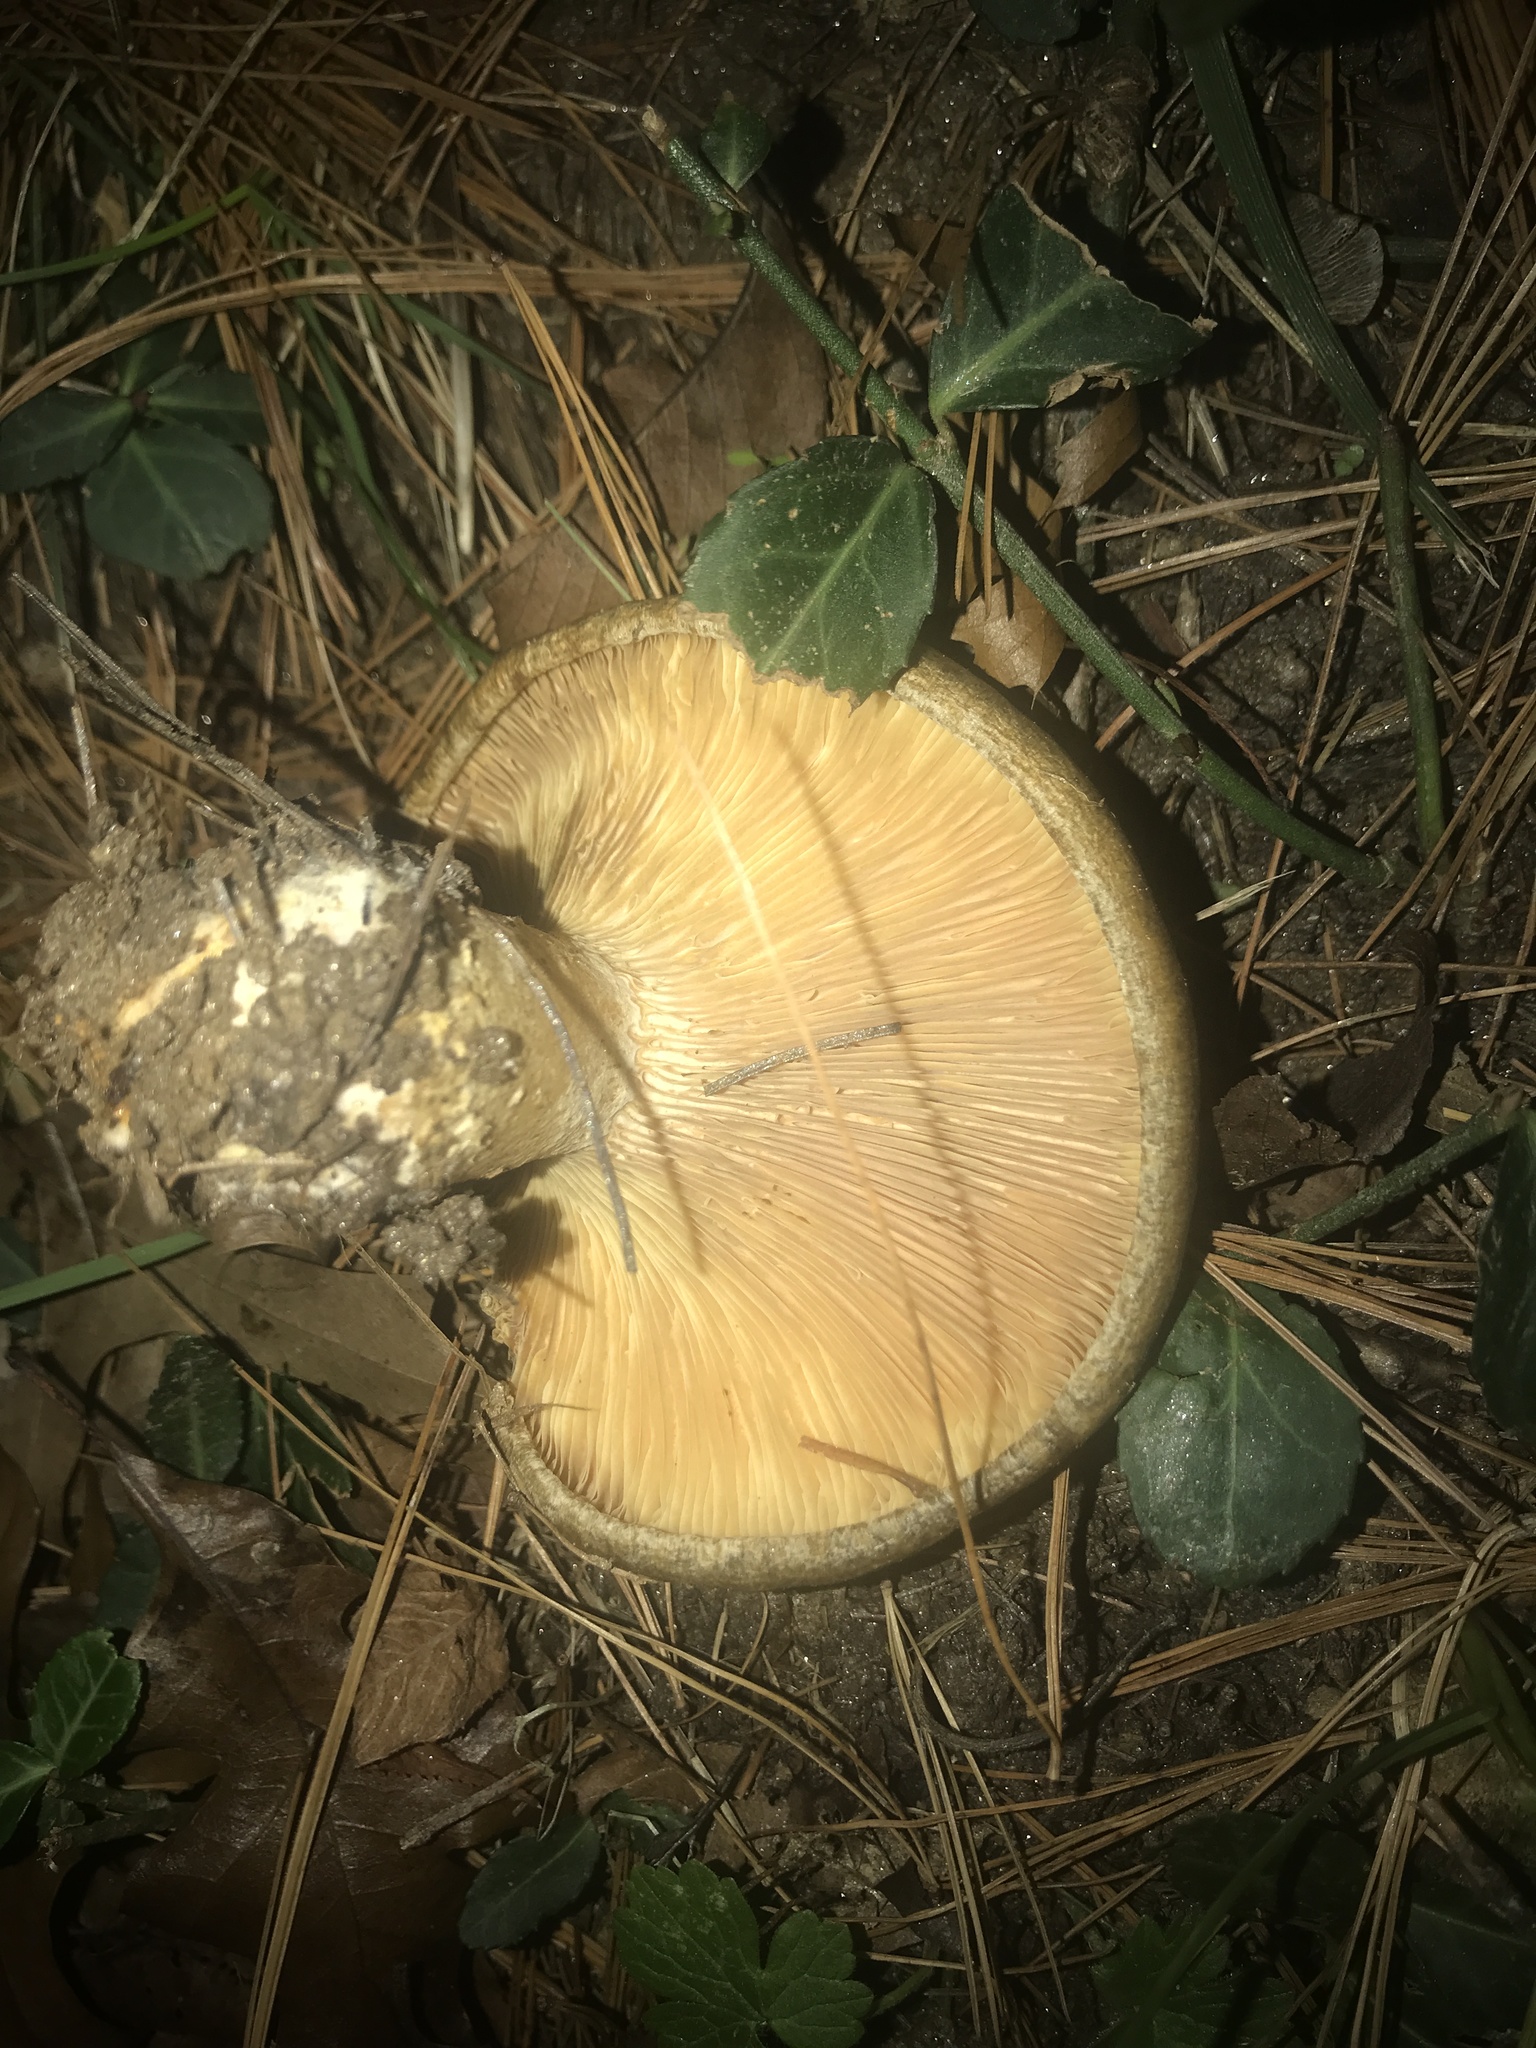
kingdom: Fungi
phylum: Basidiomycota
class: Agaricomycetes
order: Russulales
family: Russulaceae
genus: Lactarius
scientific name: Lactarius chelidonium
